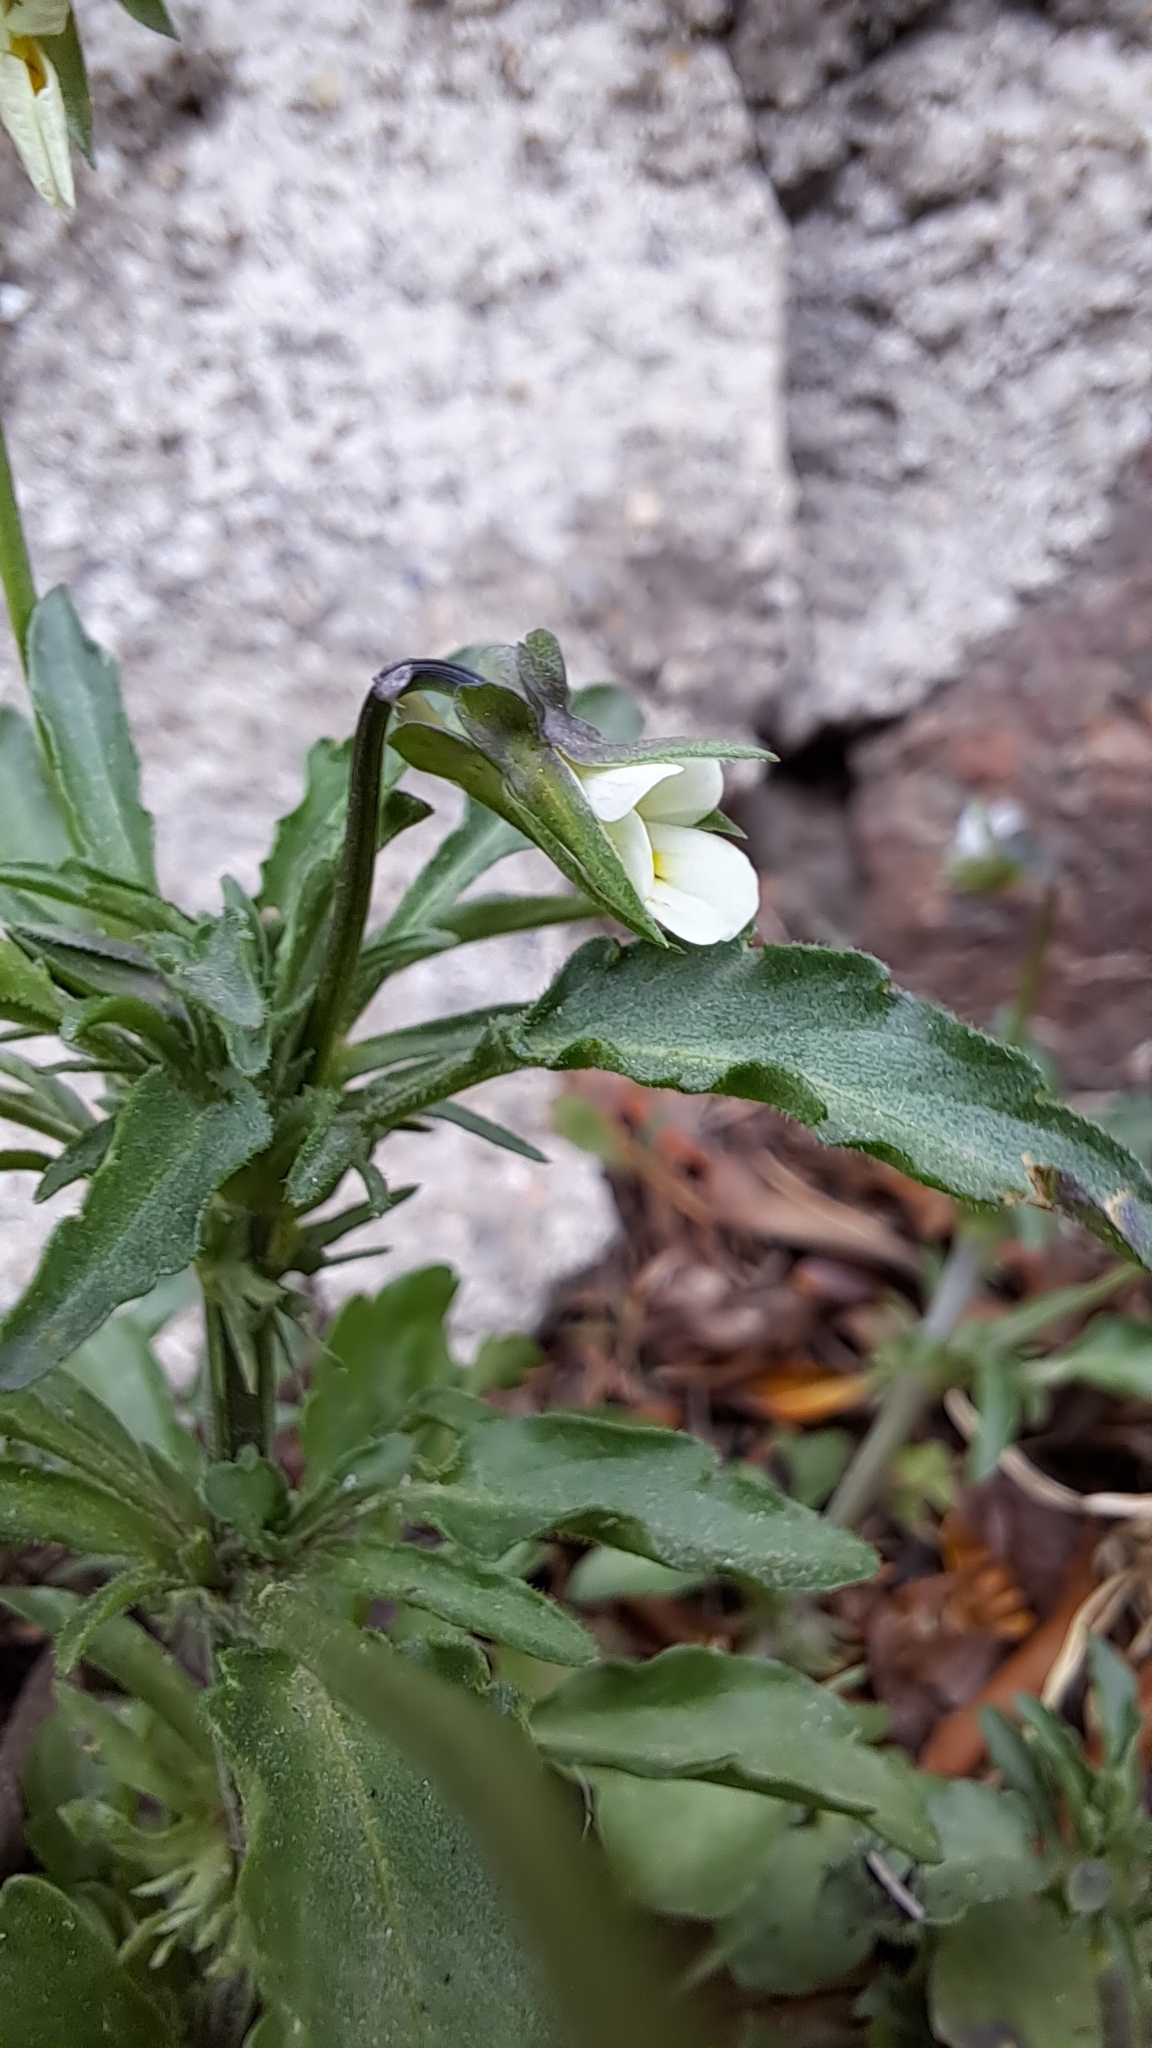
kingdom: Plantae
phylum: Tracheophyta
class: Magnoliopsida
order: Malpighiales
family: Violaceae
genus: Viola
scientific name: Viola arvensis
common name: Field pansy
